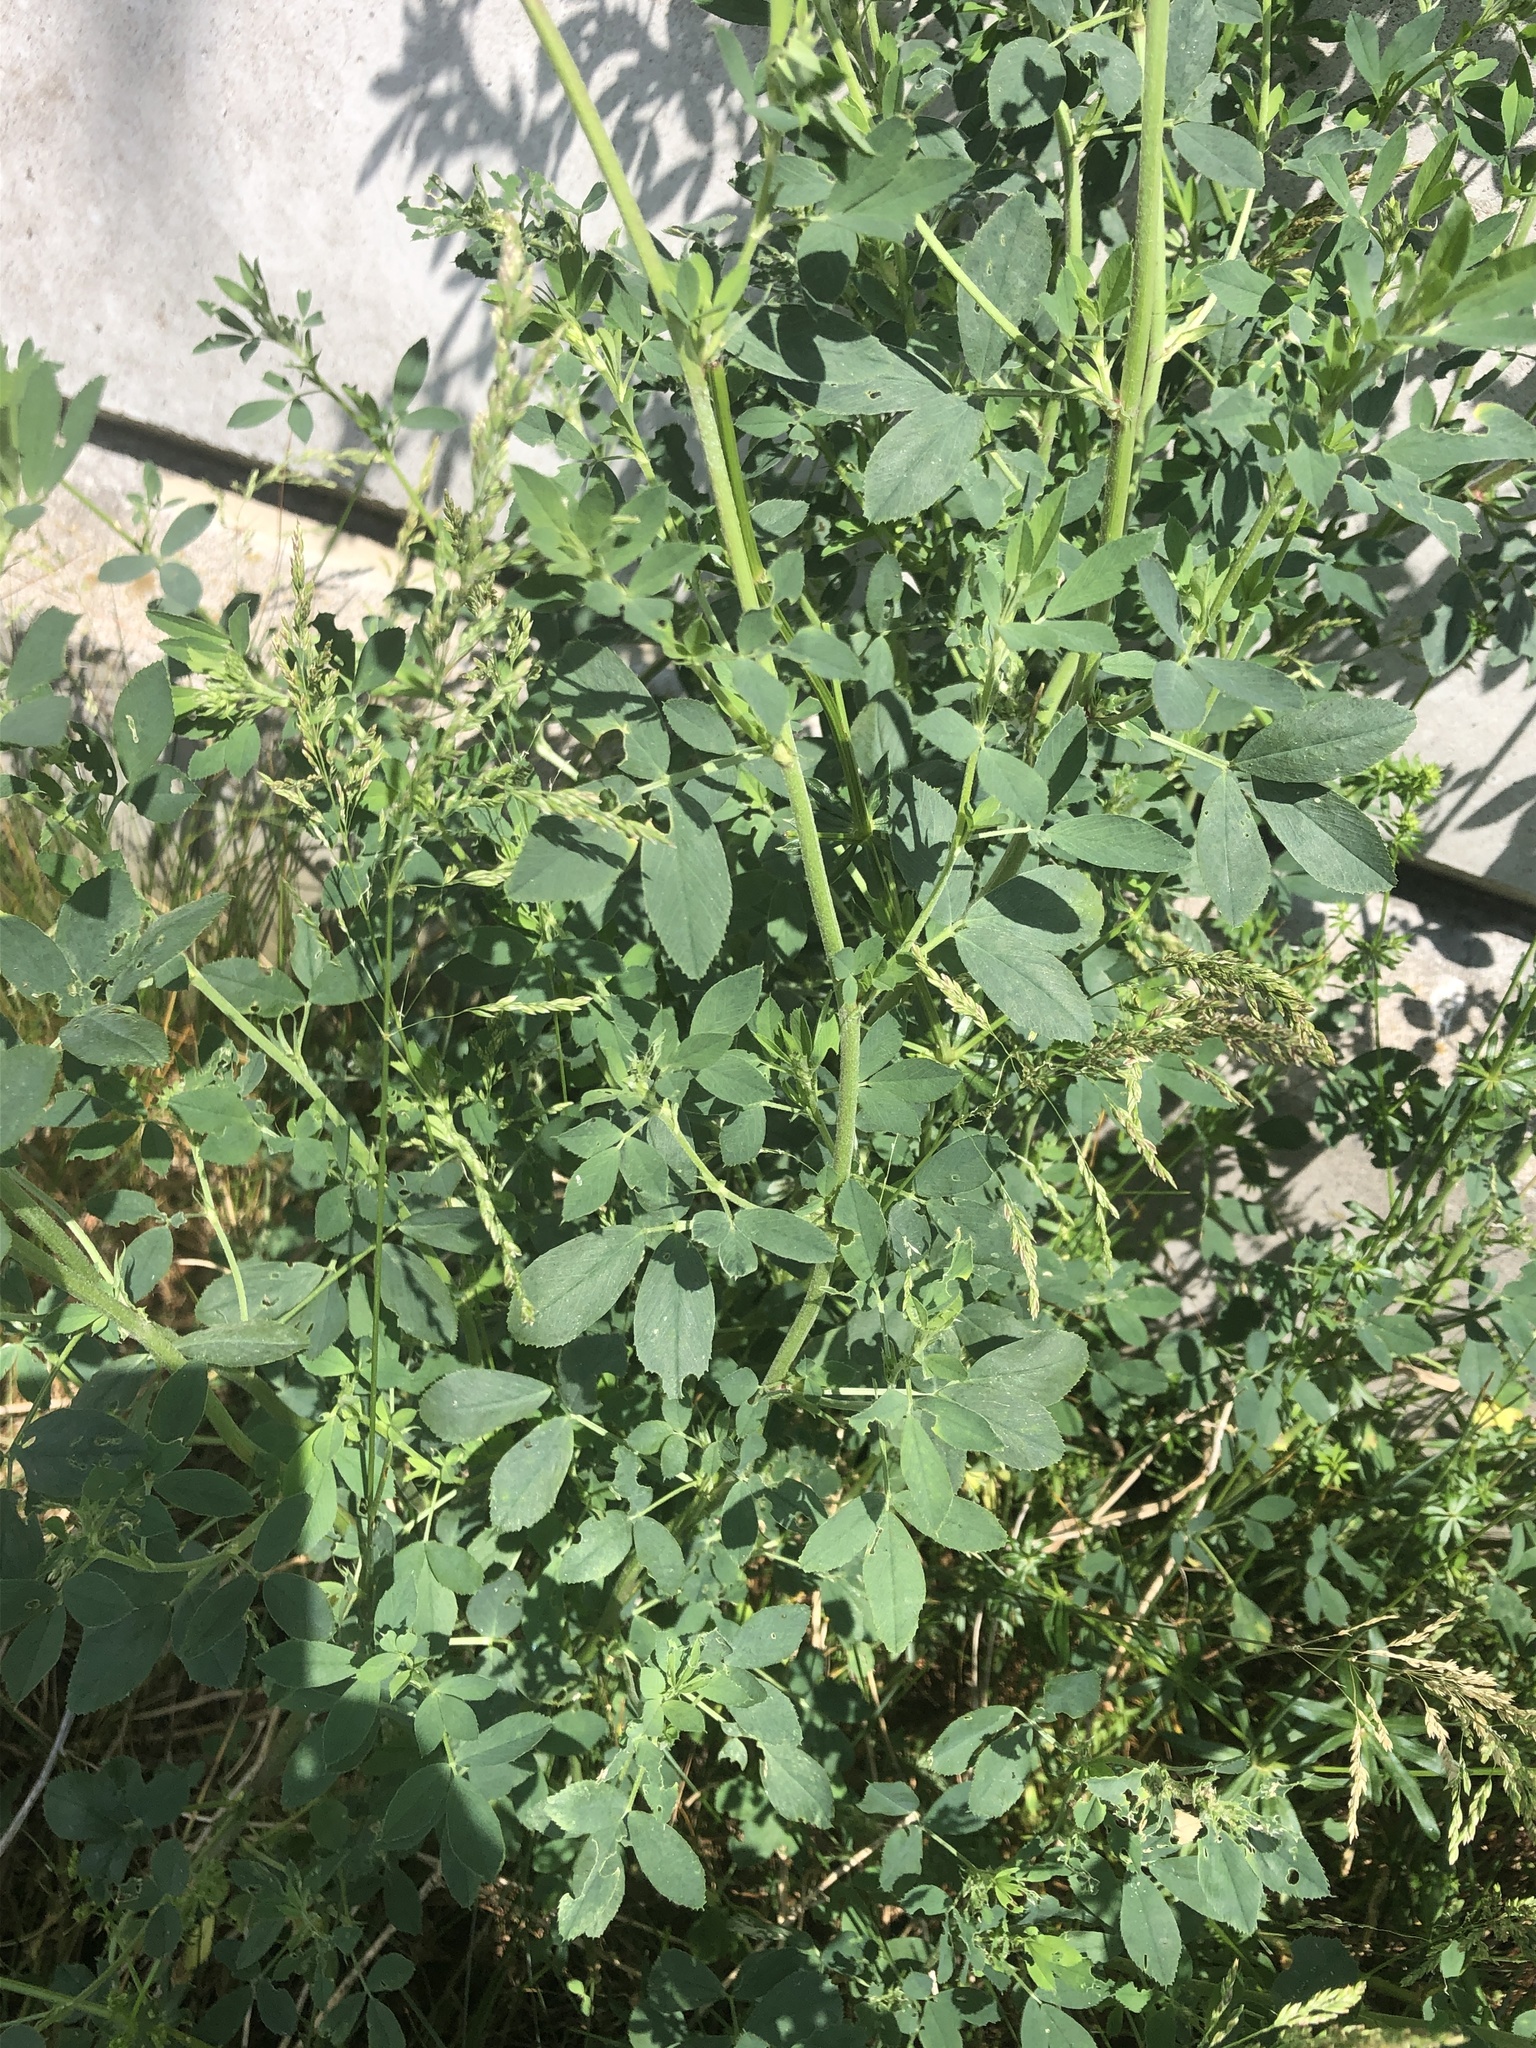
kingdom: Plantae
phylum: Tracheophyta
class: Magnoliopsida
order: Fabales
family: Fabaceae
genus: Melilotus
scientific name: Melilotus albus
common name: White melilot
